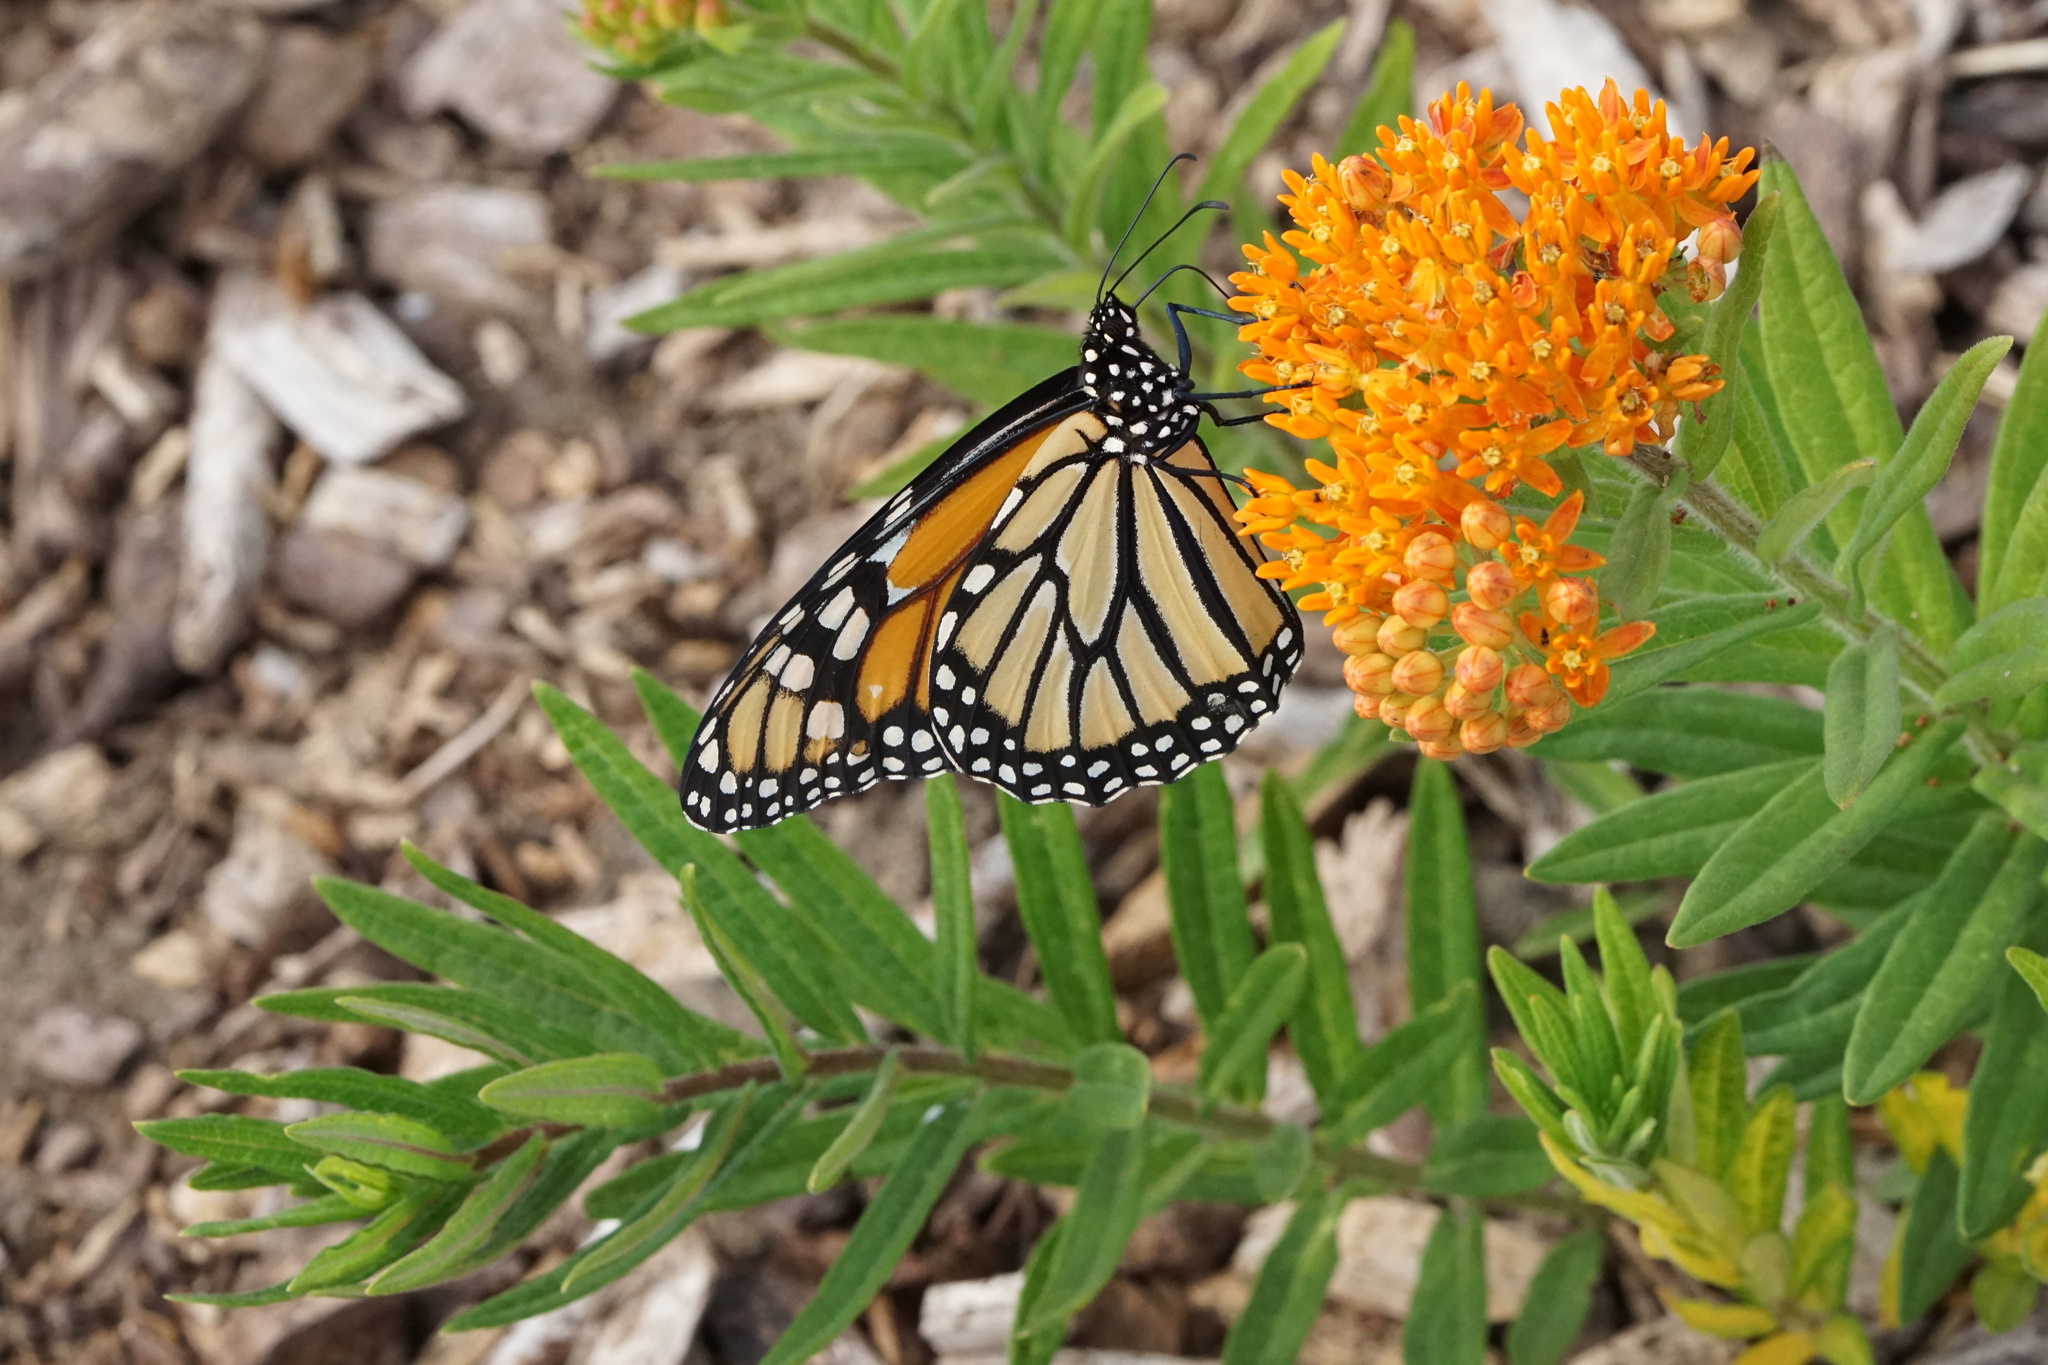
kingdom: Animalia
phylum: Arthropoda
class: Insecta
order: Lepidoptera
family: Nymphalidae
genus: Danaus
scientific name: Danaus plexippus
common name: Monarch
